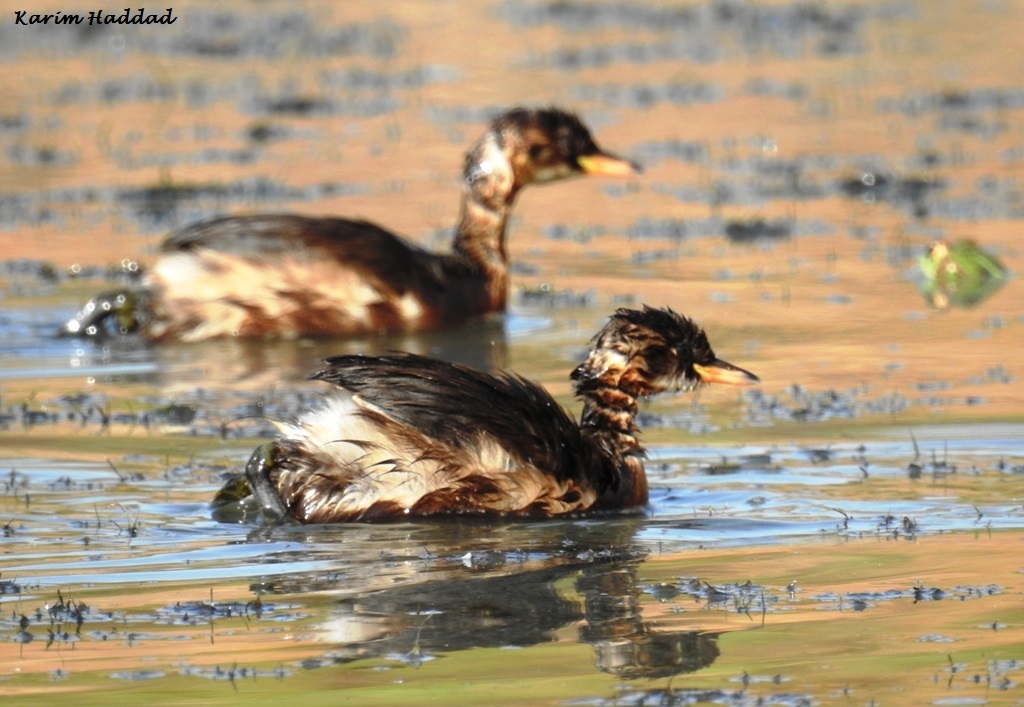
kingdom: Animalia
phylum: Chordata
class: Aves
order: Podicipediformes
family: Podicipedidae
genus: Tachybaptus
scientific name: Tachybaptus ruficollis
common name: Little grebe
